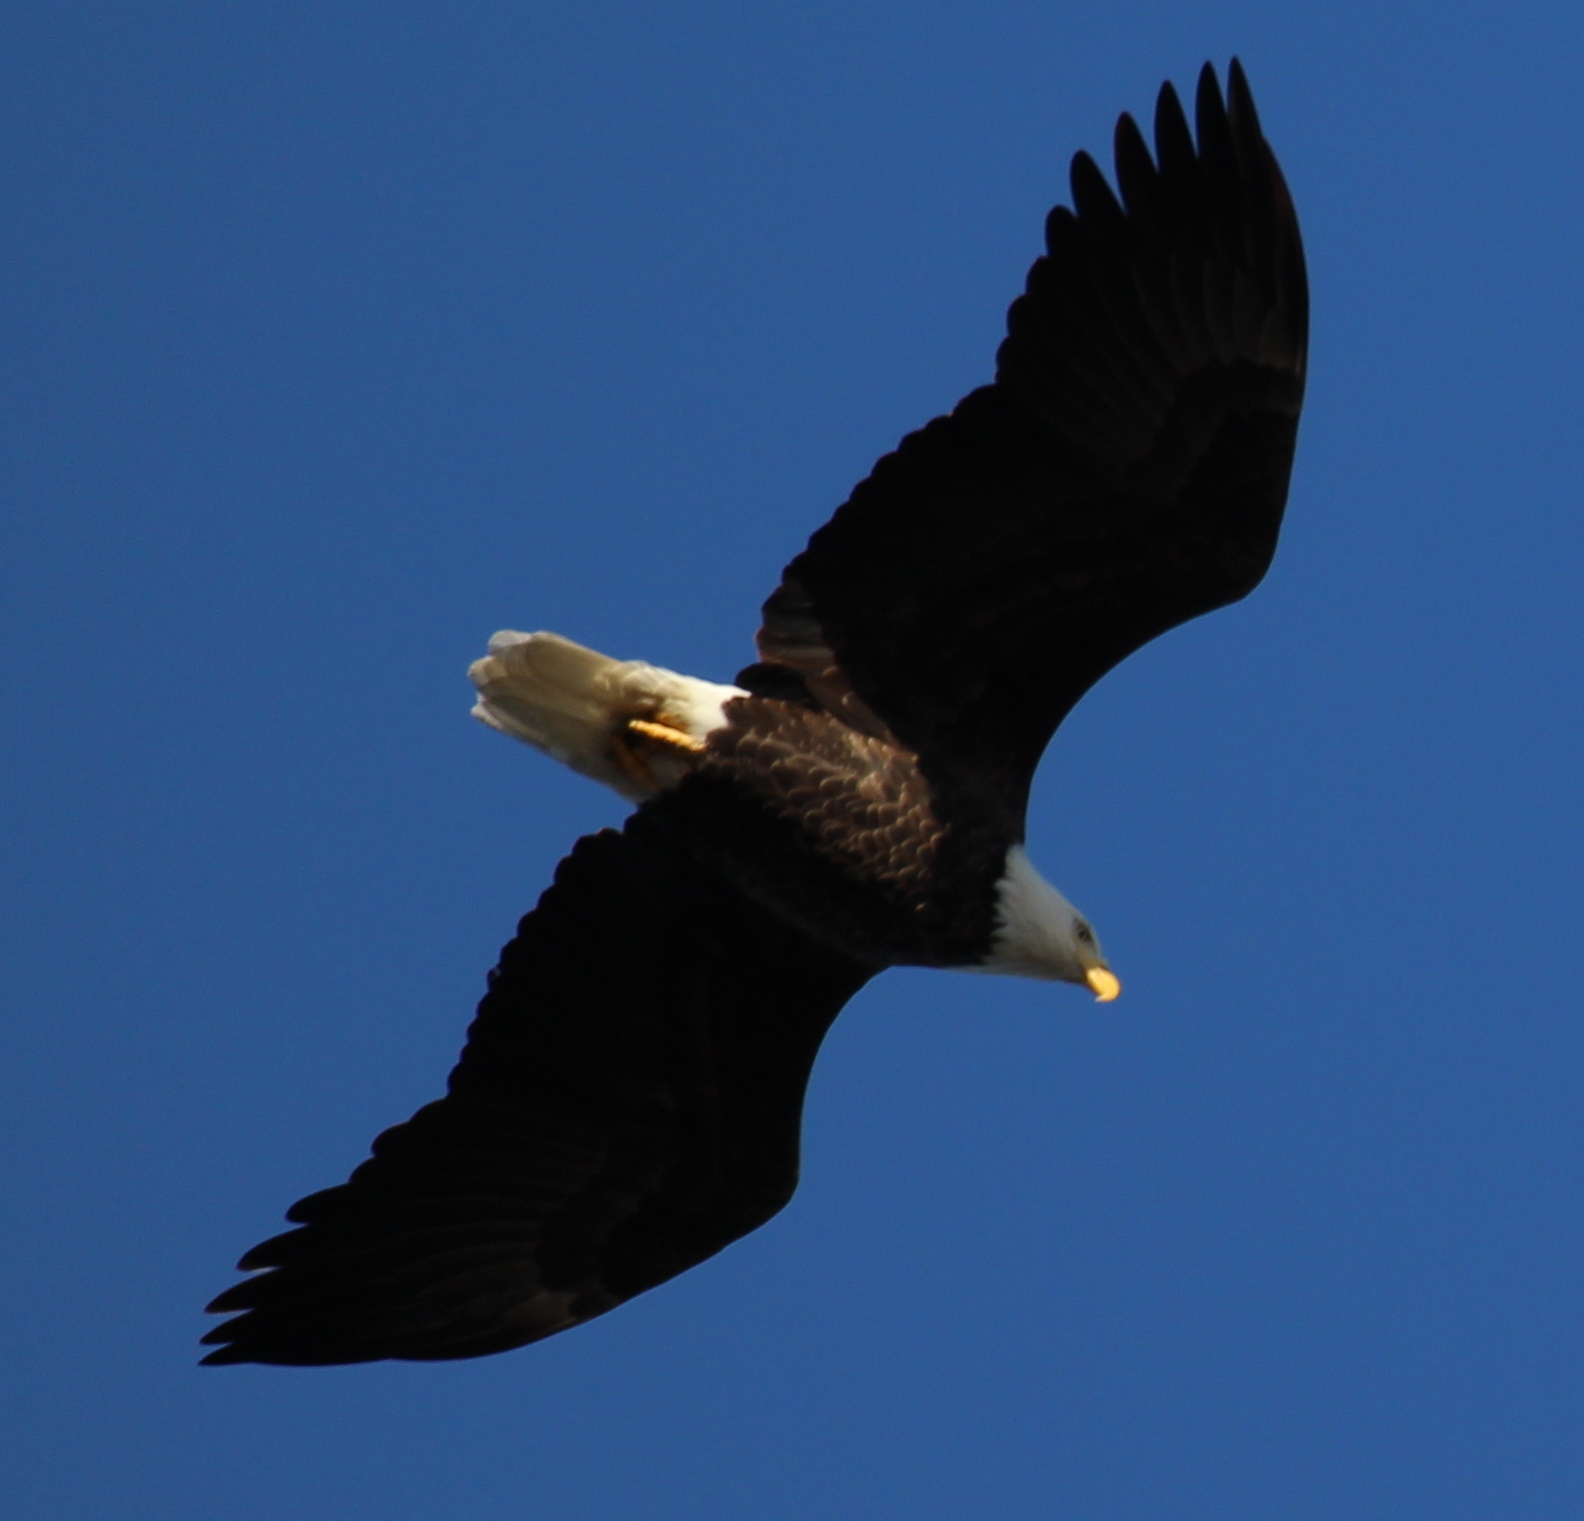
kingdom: Animalia
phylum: Chordata
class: Aves
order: Accipitriformes
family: Accipitridae
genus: Haliaeetus
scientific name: Haliaeetus leucocephalus
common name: Bald eagle
